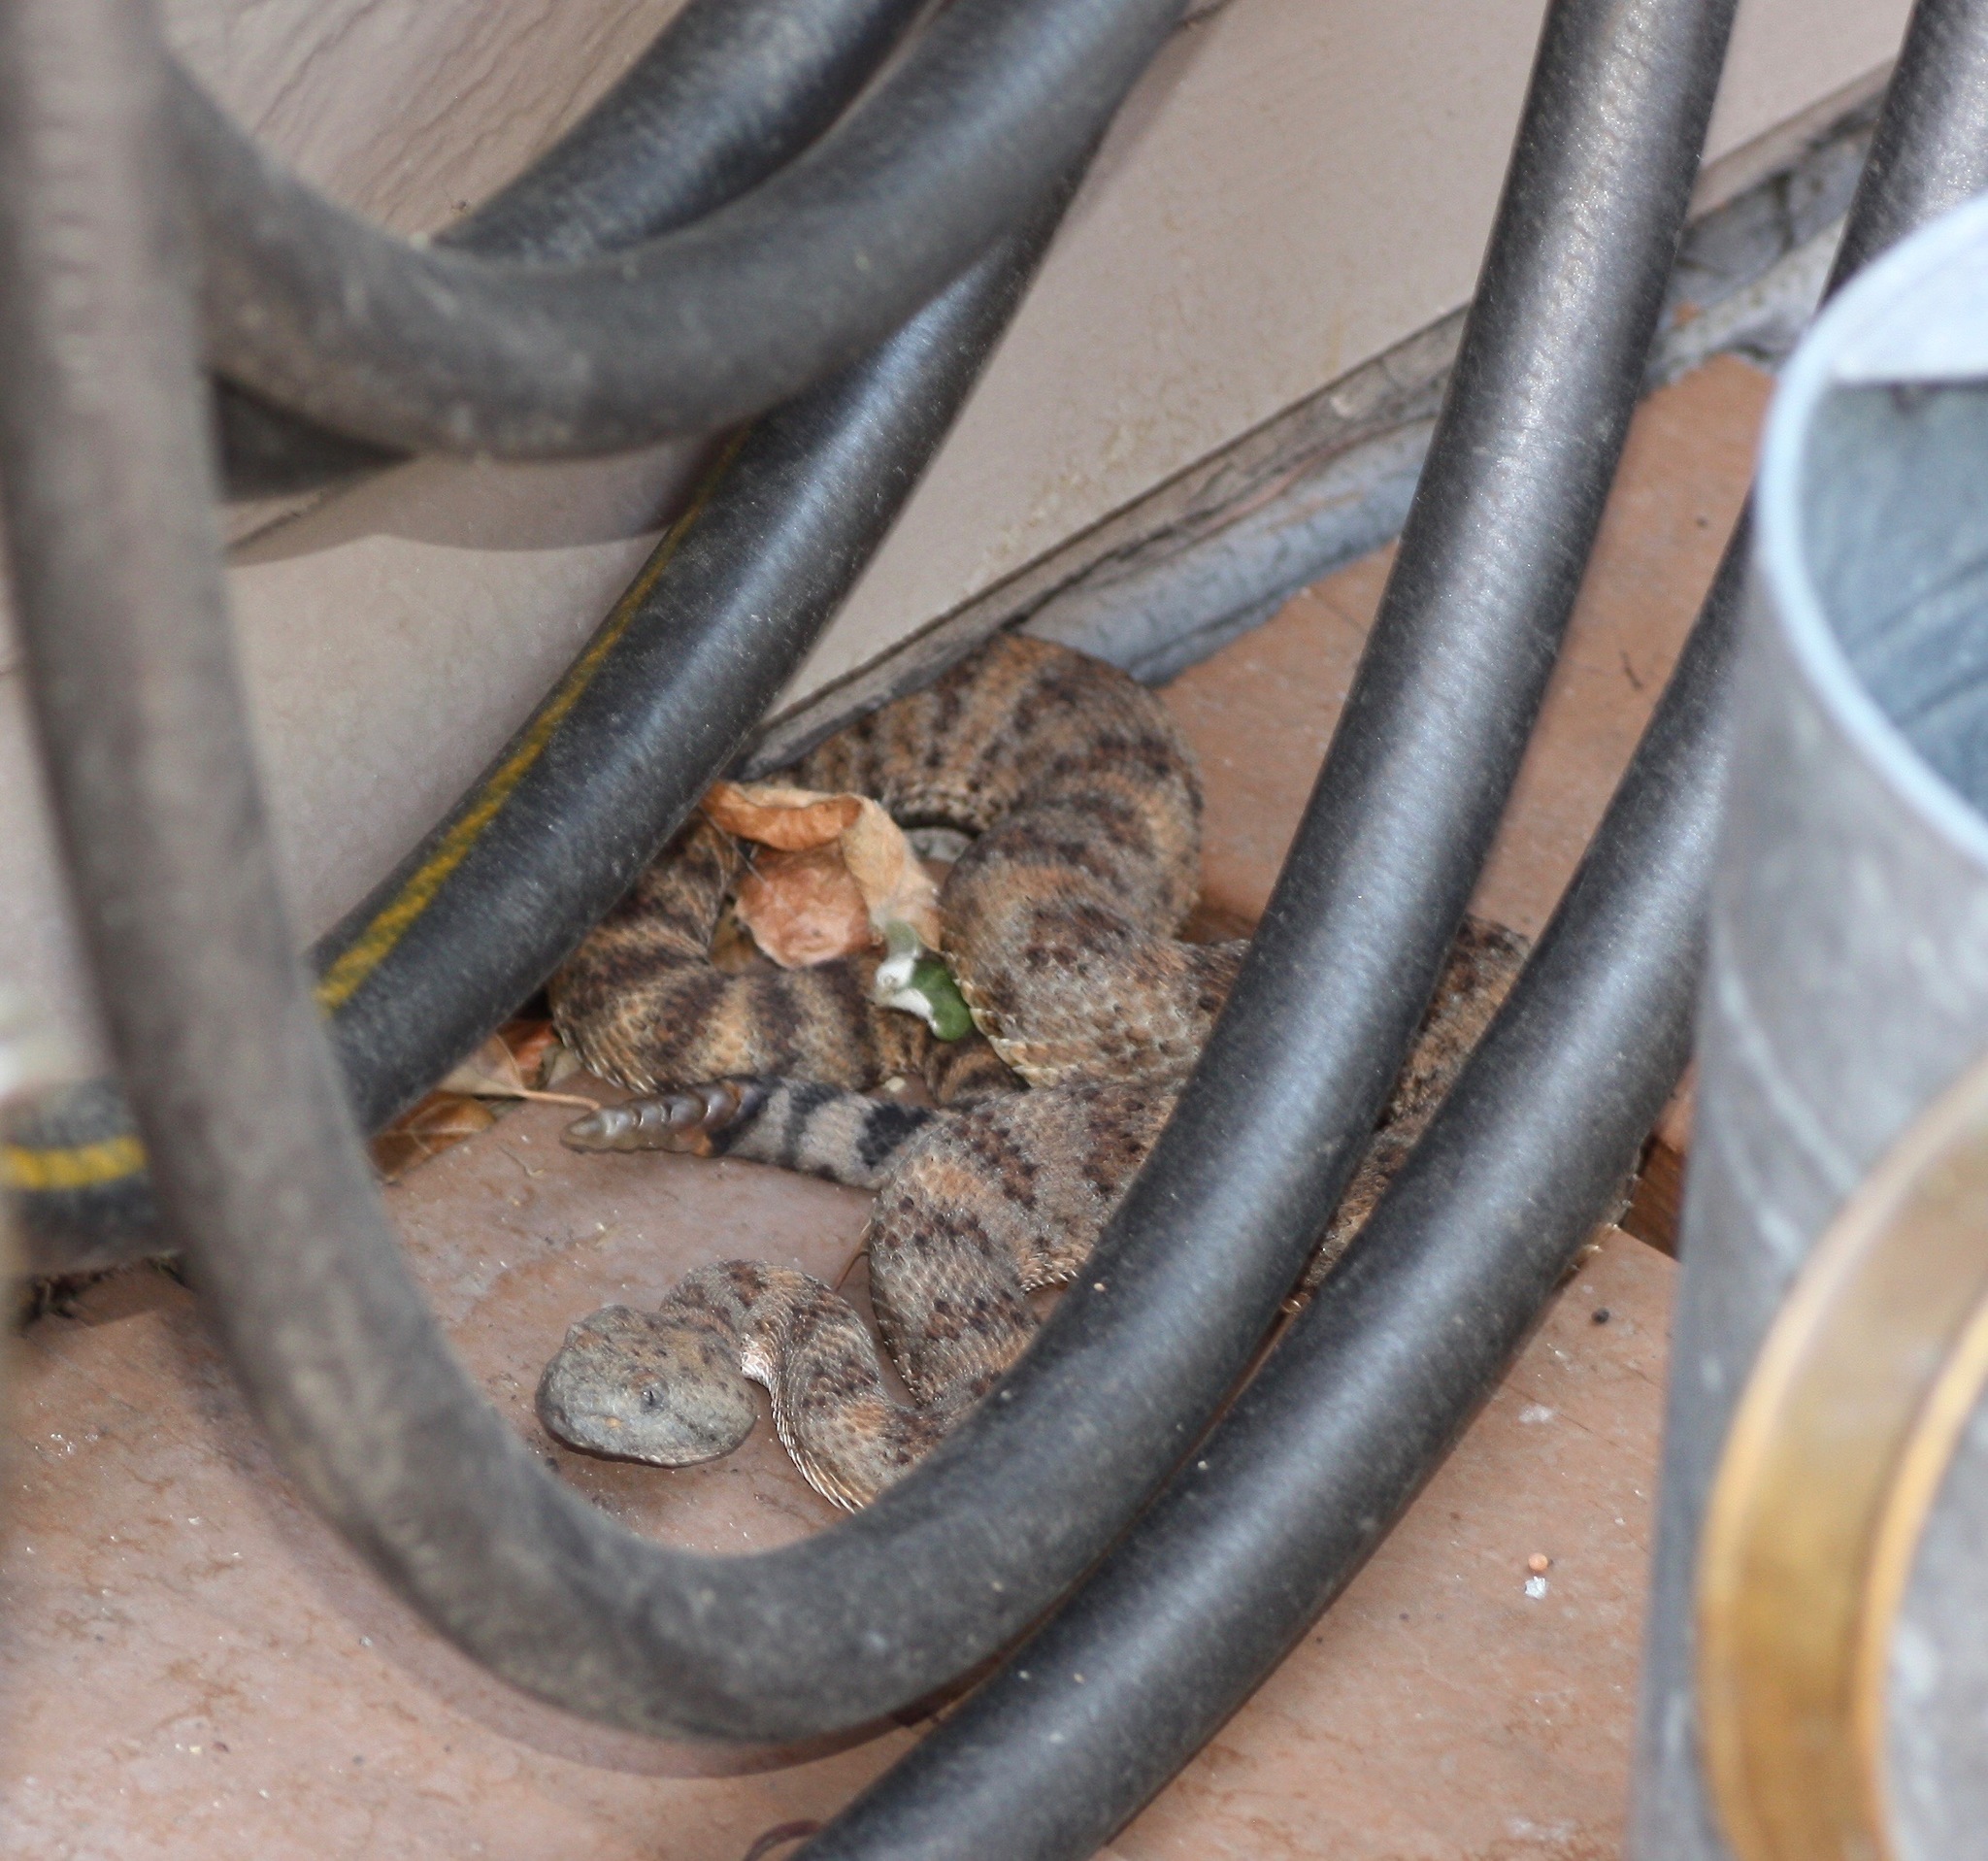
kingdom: Animalia
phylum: Chordata
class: Squamata
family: Viperidae
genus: Crotalus
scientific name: Crotalus pyrrhus
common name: Southwestern speckled rattlesnake
